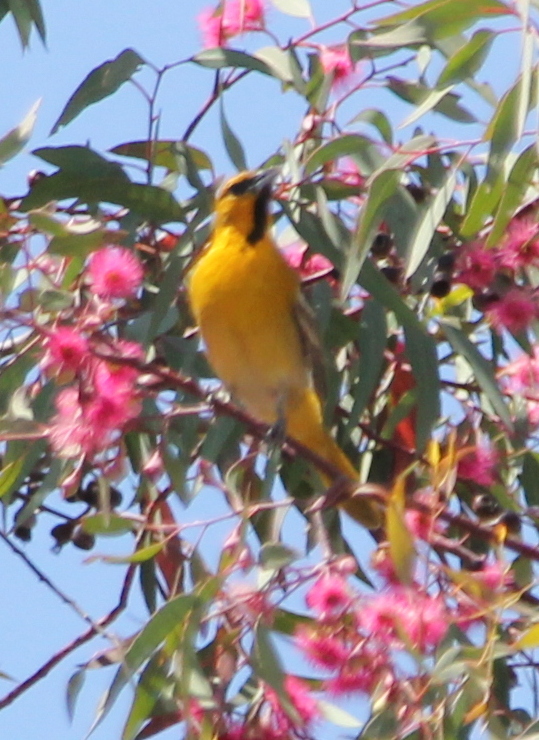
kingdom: Animalia
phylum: Chordata
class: Aves
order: Passeriformes
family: Icteridae
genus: Icterus
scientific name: Icterus bullockii
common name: Bullock's oriole
